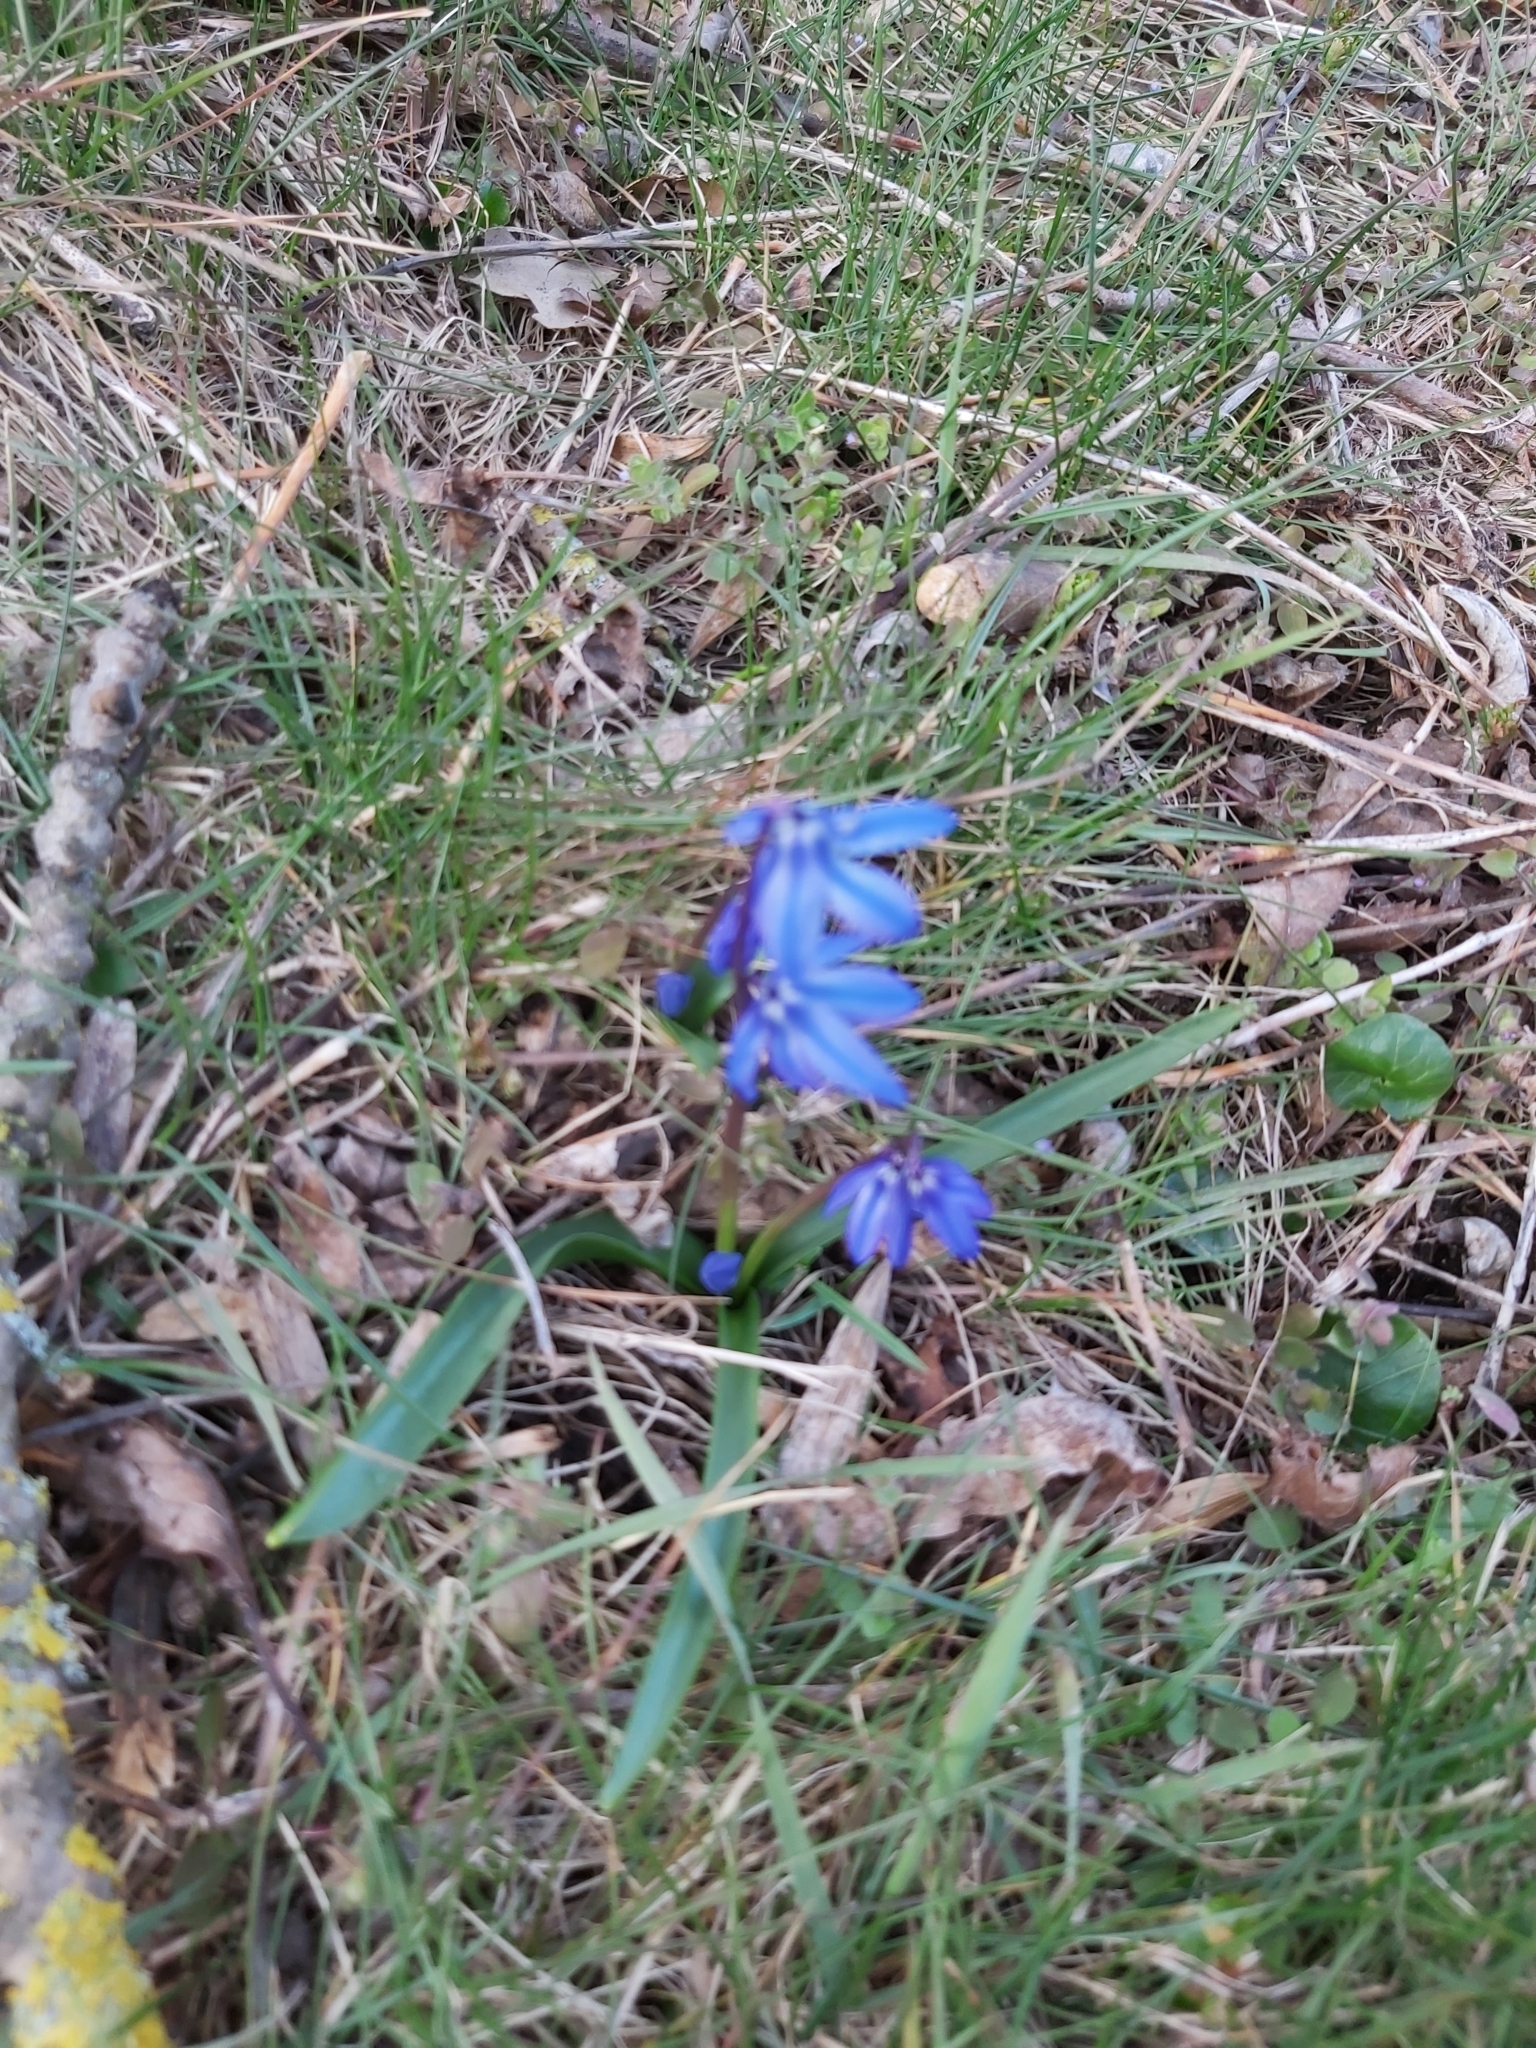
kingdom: Plantae
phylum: Tracheophyta
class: Liliopsida
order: Asparagales
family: Asparagaceae
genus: Scilla
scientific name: Scilla siberica
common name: Siberian squill
